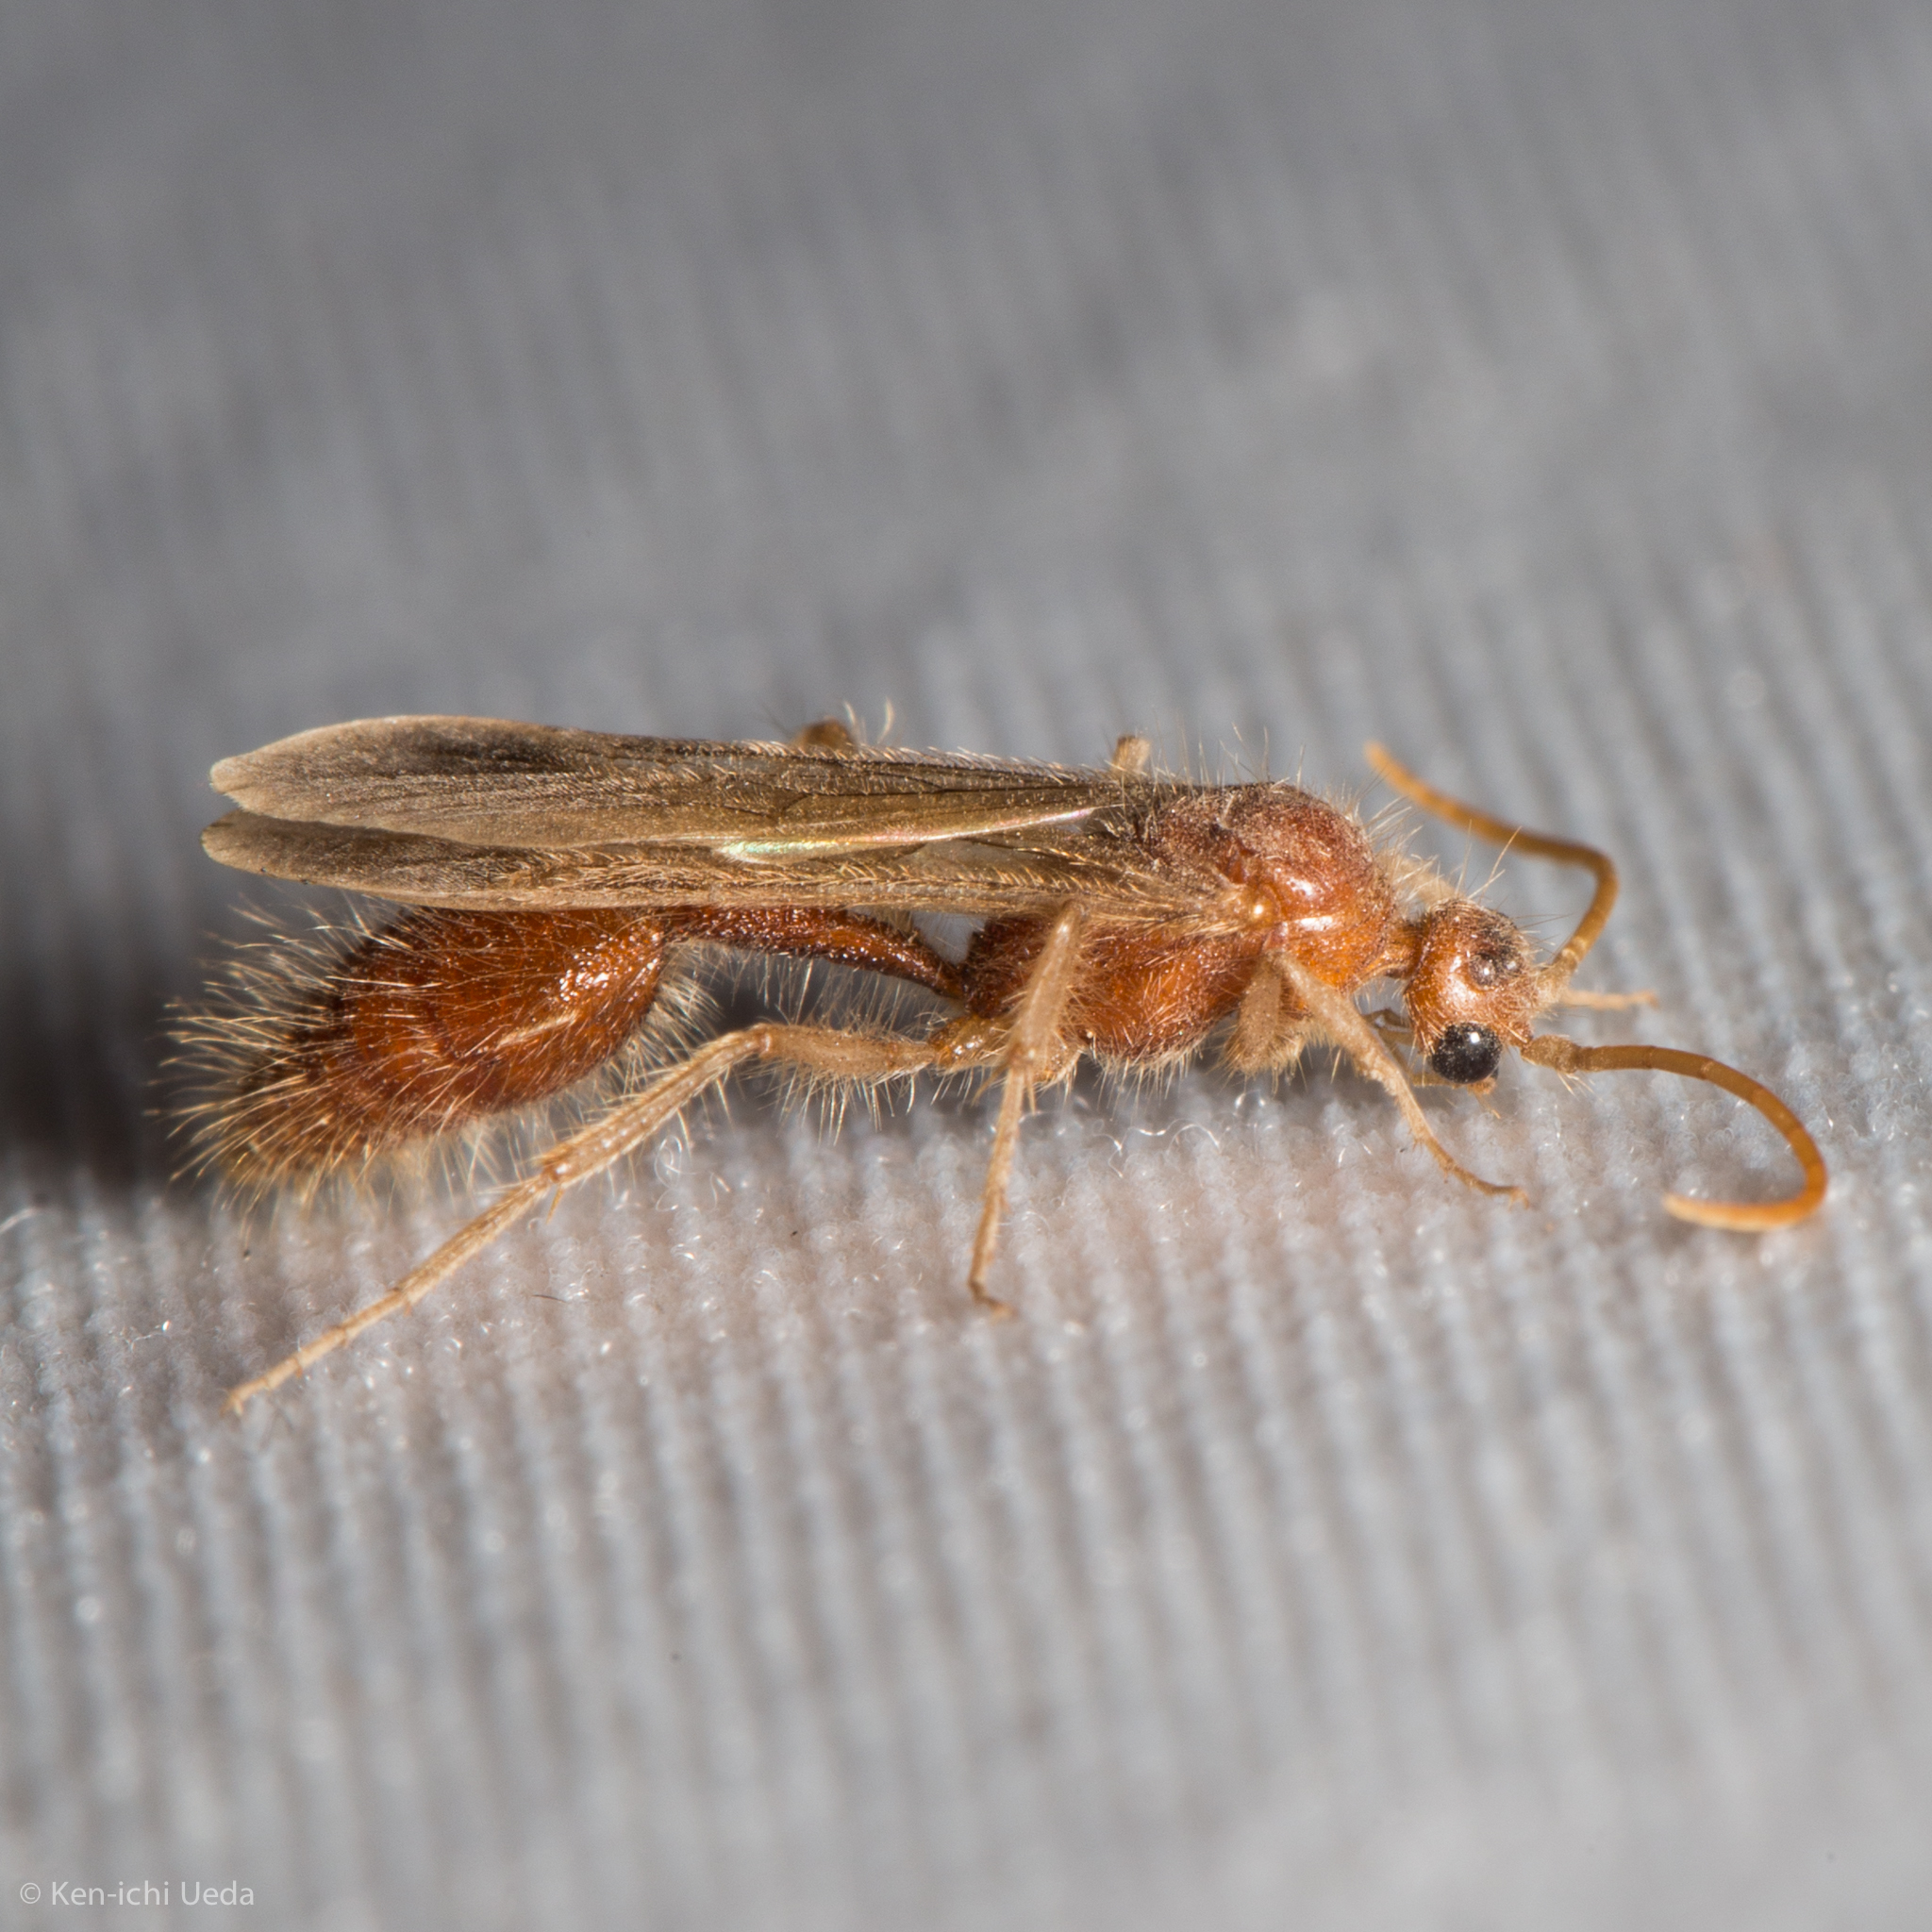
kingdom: Animalia
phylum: Arthropoda
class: Insecta
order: Hymenoptera
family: Chyphotidae
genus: Chyphotes
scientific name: Chyphotes
